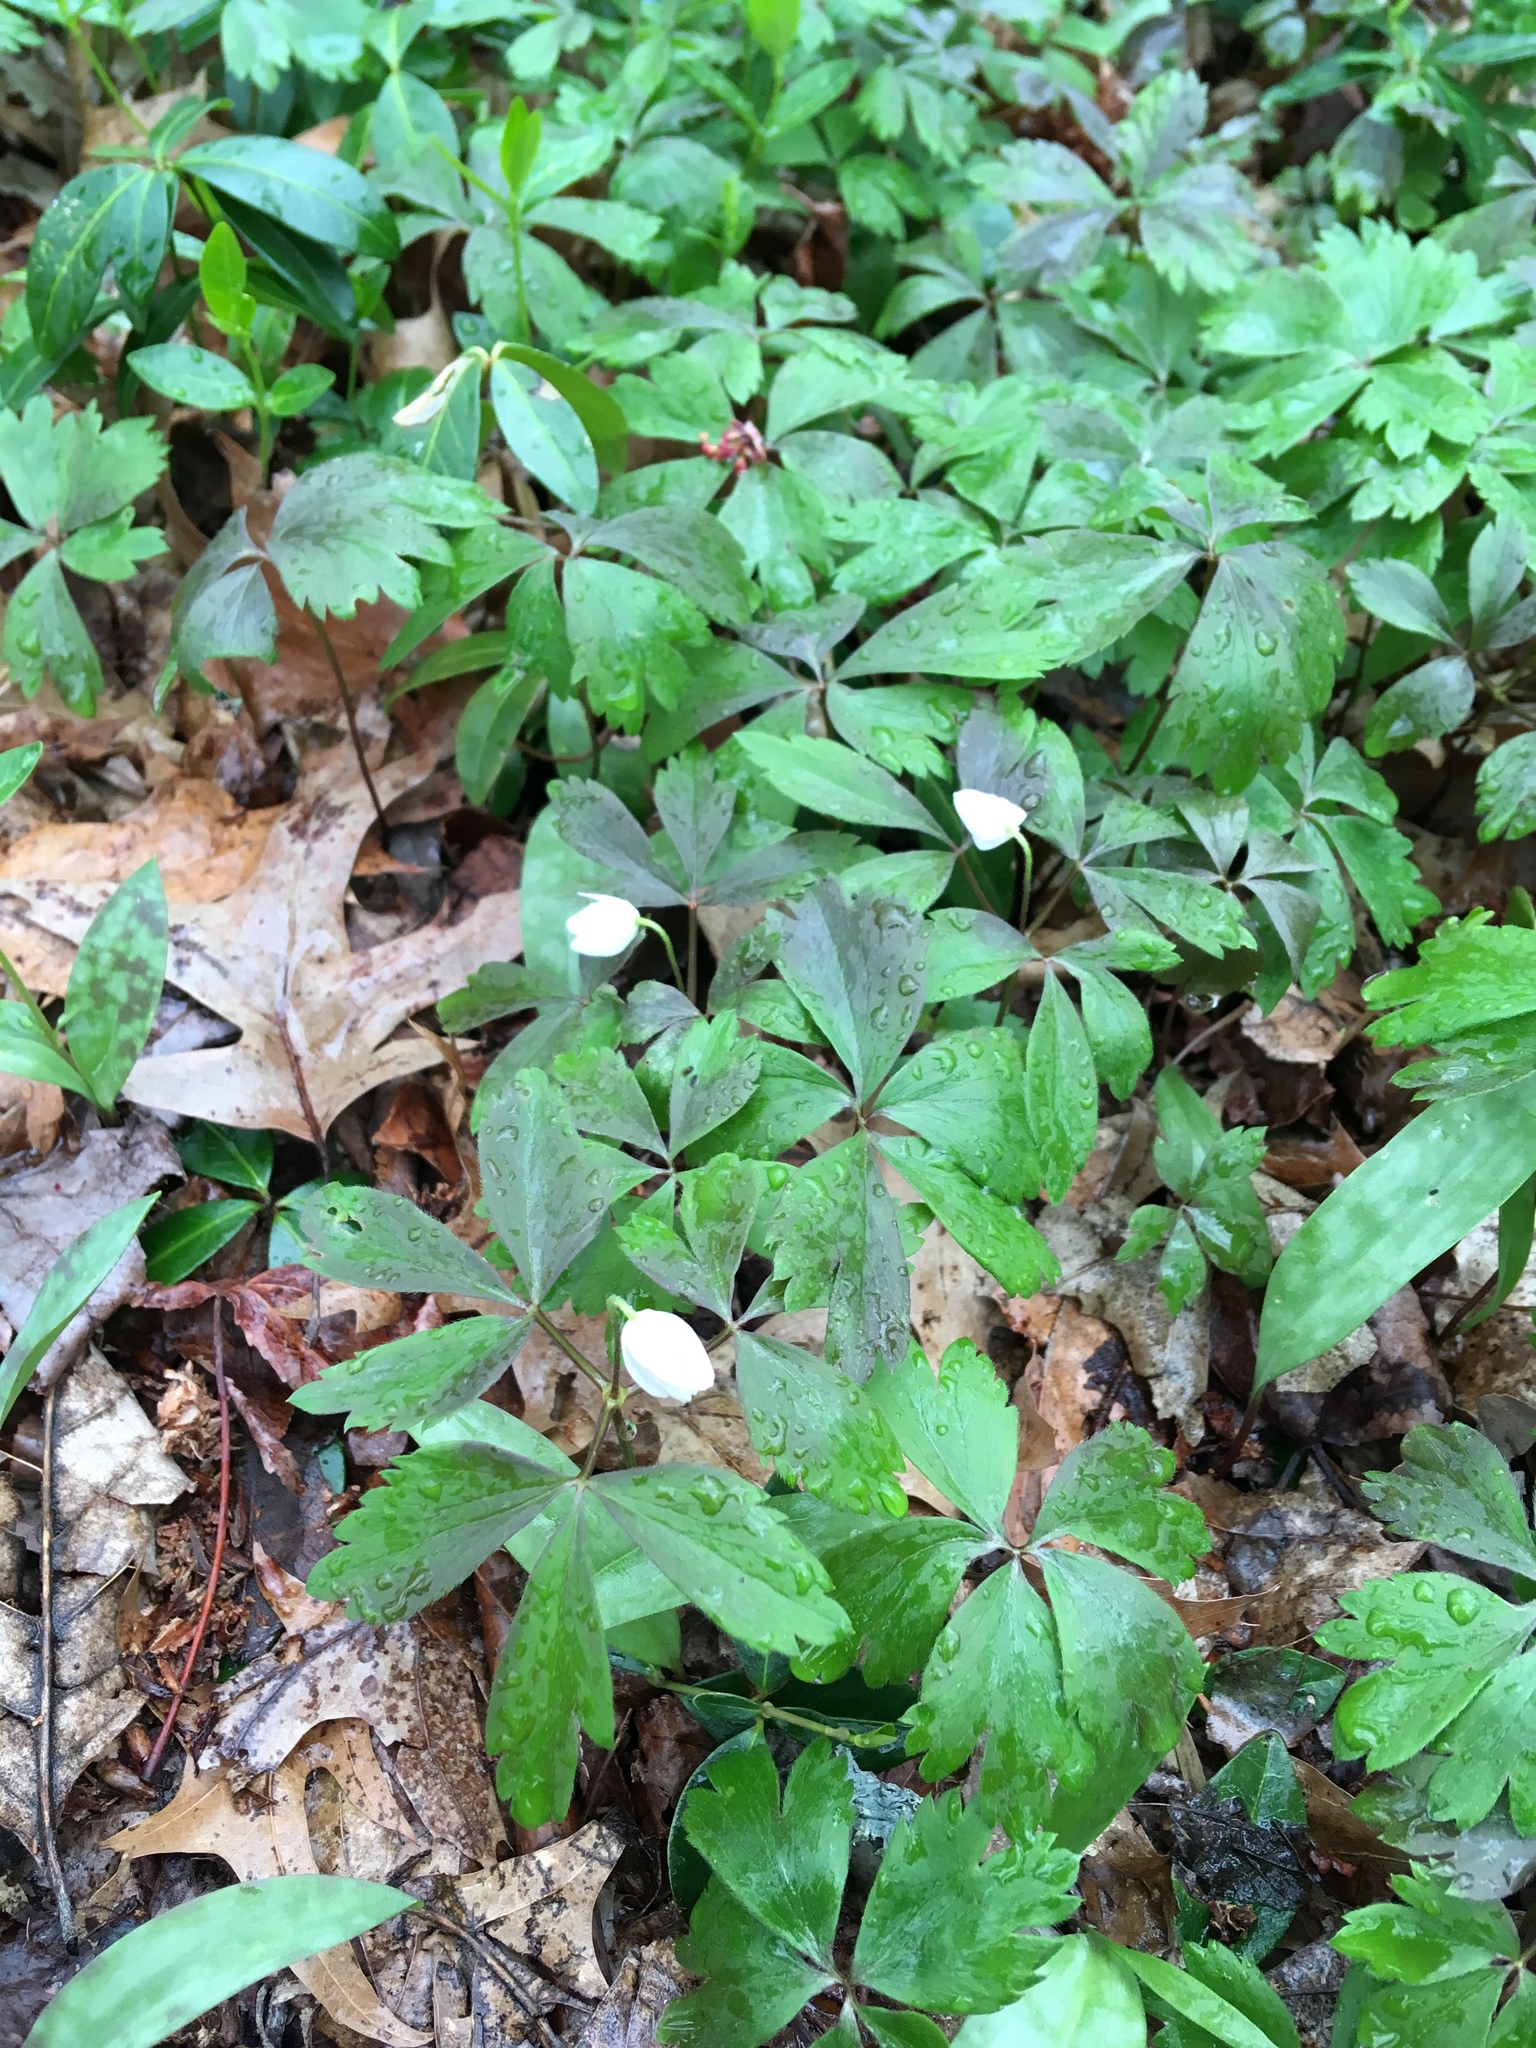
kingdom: Plantae
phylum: Tracheophyta
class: Magnoliopsida
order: Ranunculales
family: Ranunculaceae
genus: Anemone
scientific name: Anemone quinquefolia
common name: Wood anemone
